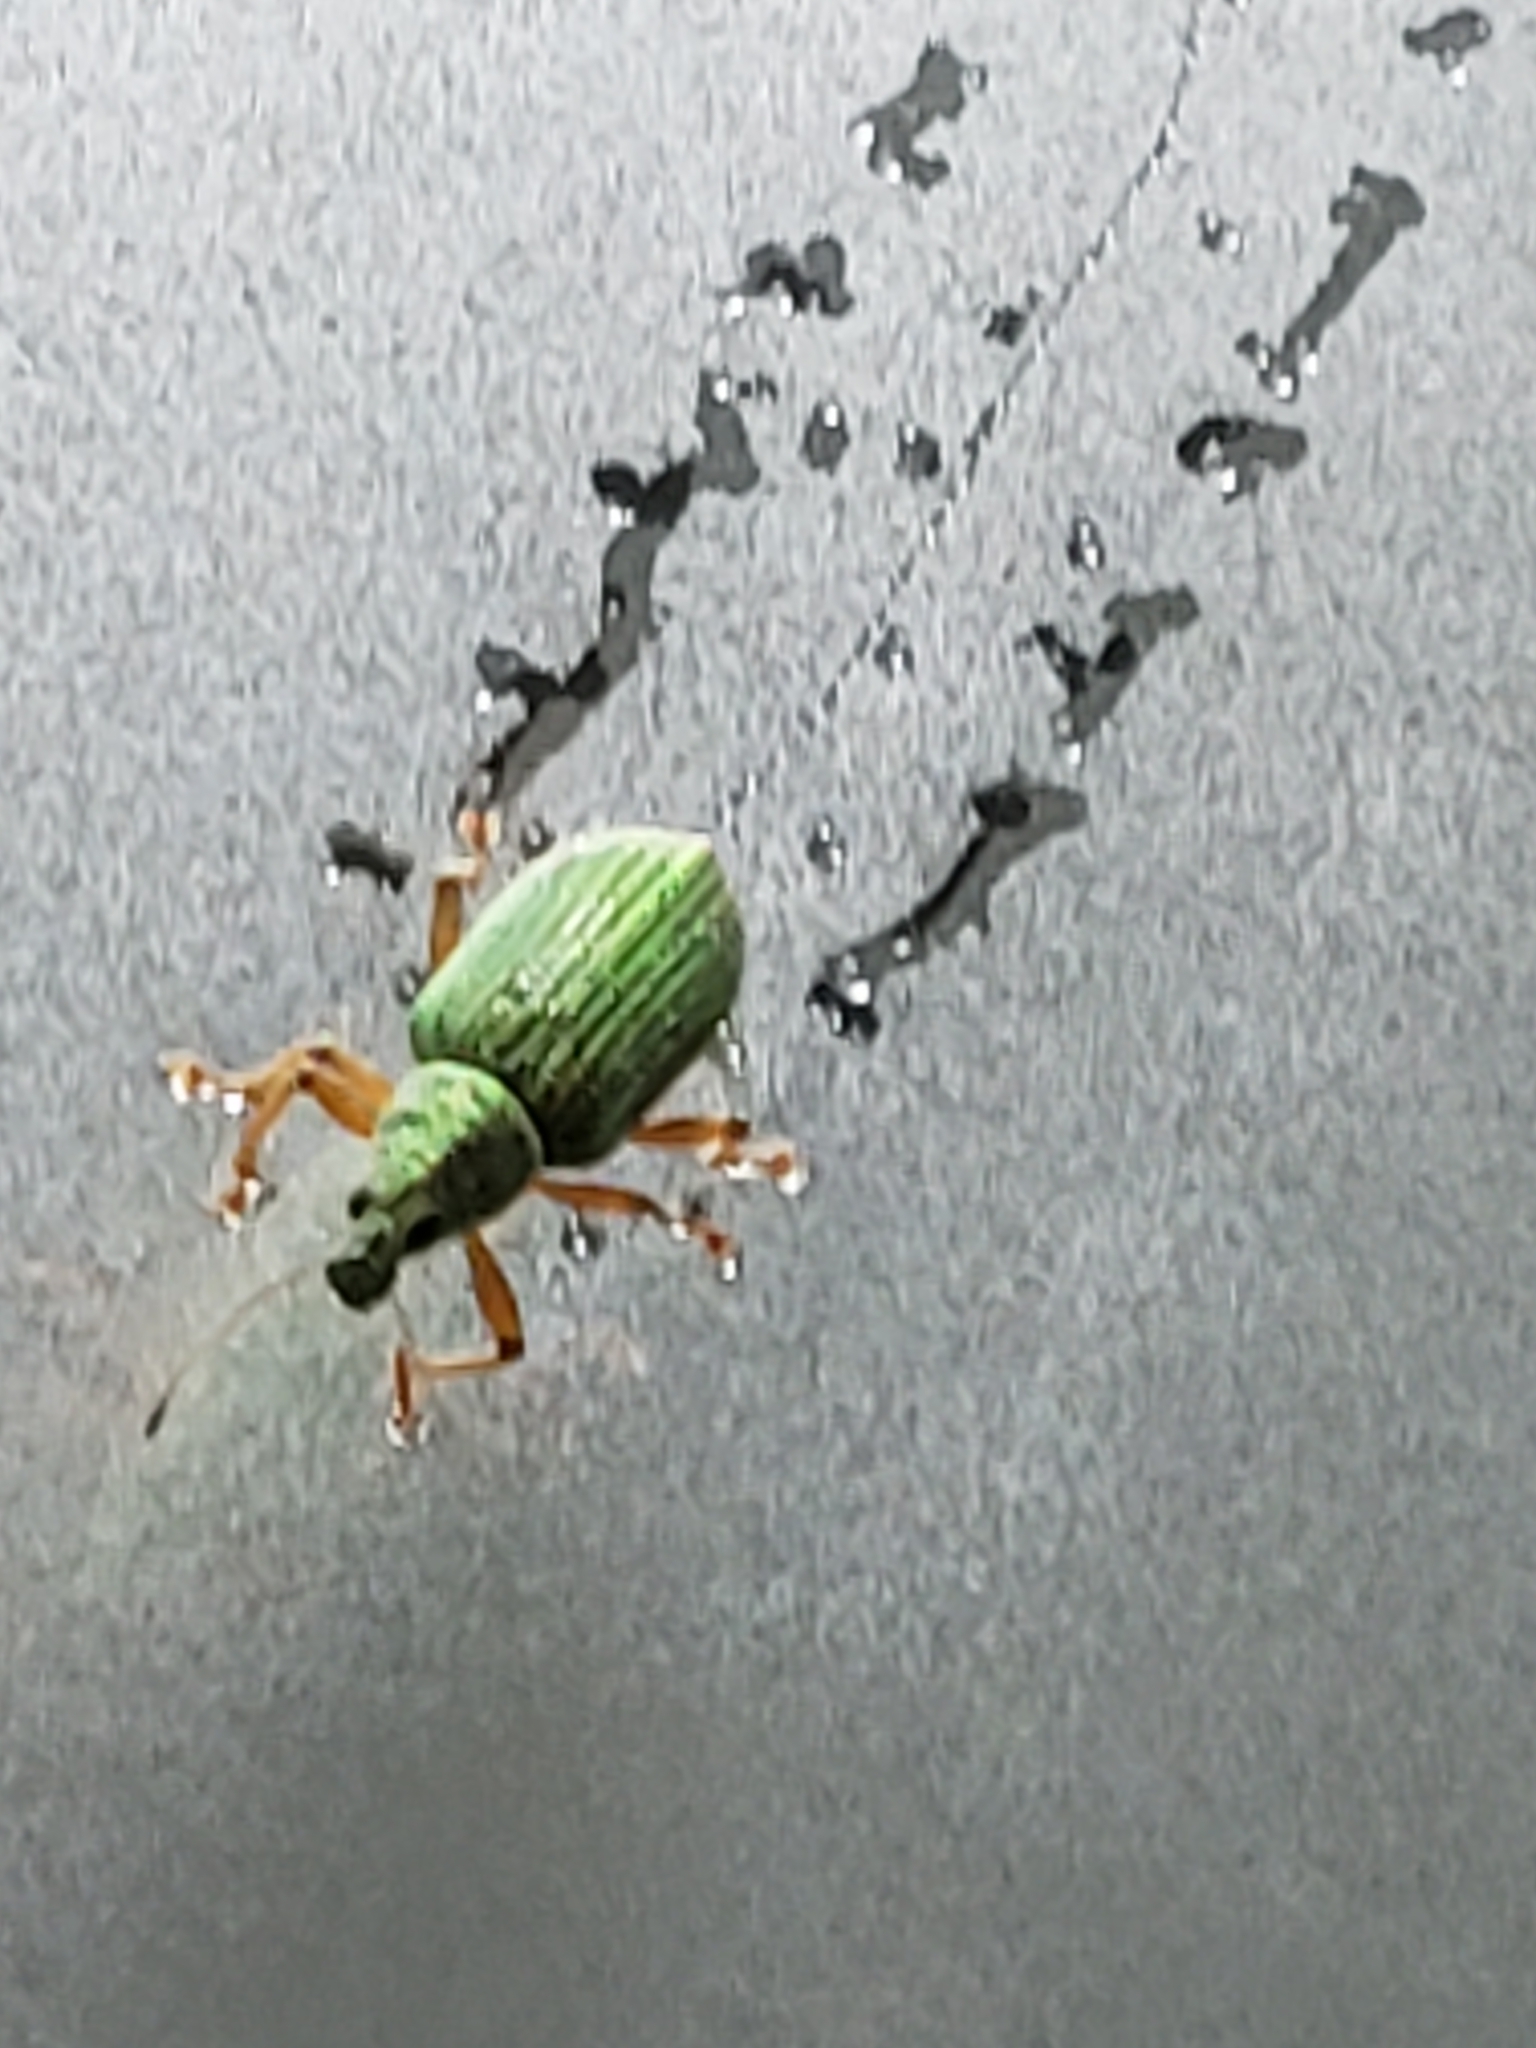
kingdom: Animalia
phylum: Arthropoda
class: Insecta
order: Coleoptera
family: Curculionidae
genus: Polydrusus
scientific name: Polydrusus formosus
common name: Weevil
